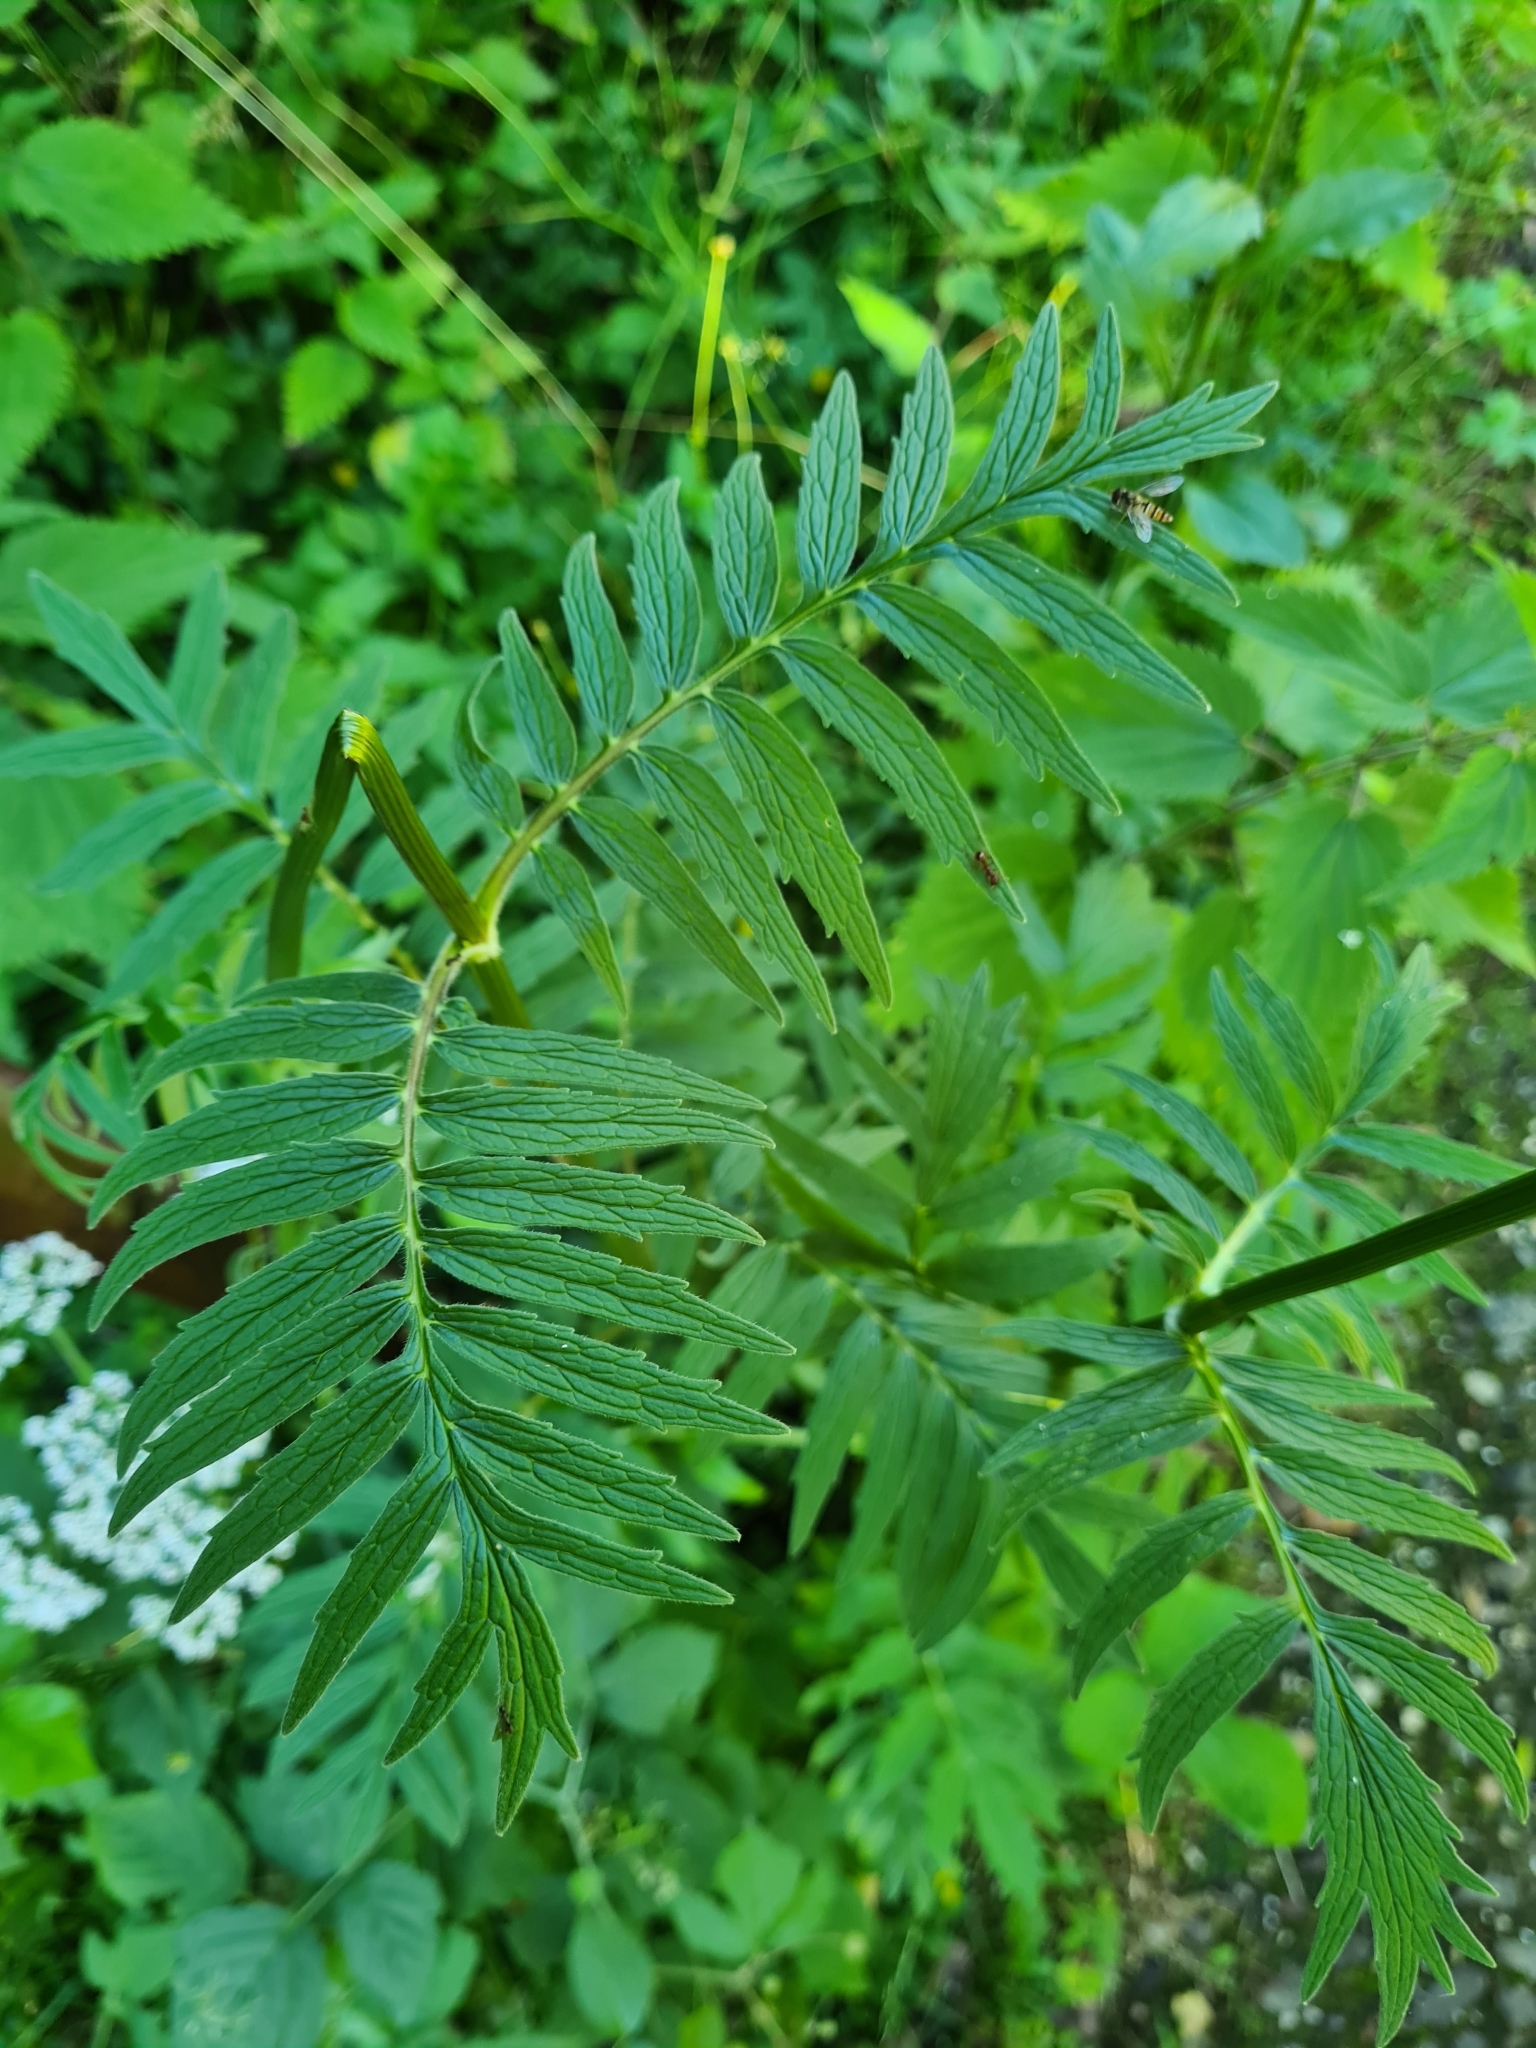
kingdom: Plantae
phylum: Tracheophyta
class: Magnoliopsida
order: Dipsacales
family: Caprifoliaceae
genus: Valeriana
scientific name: Valeriana officinalis
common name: Common valerian
